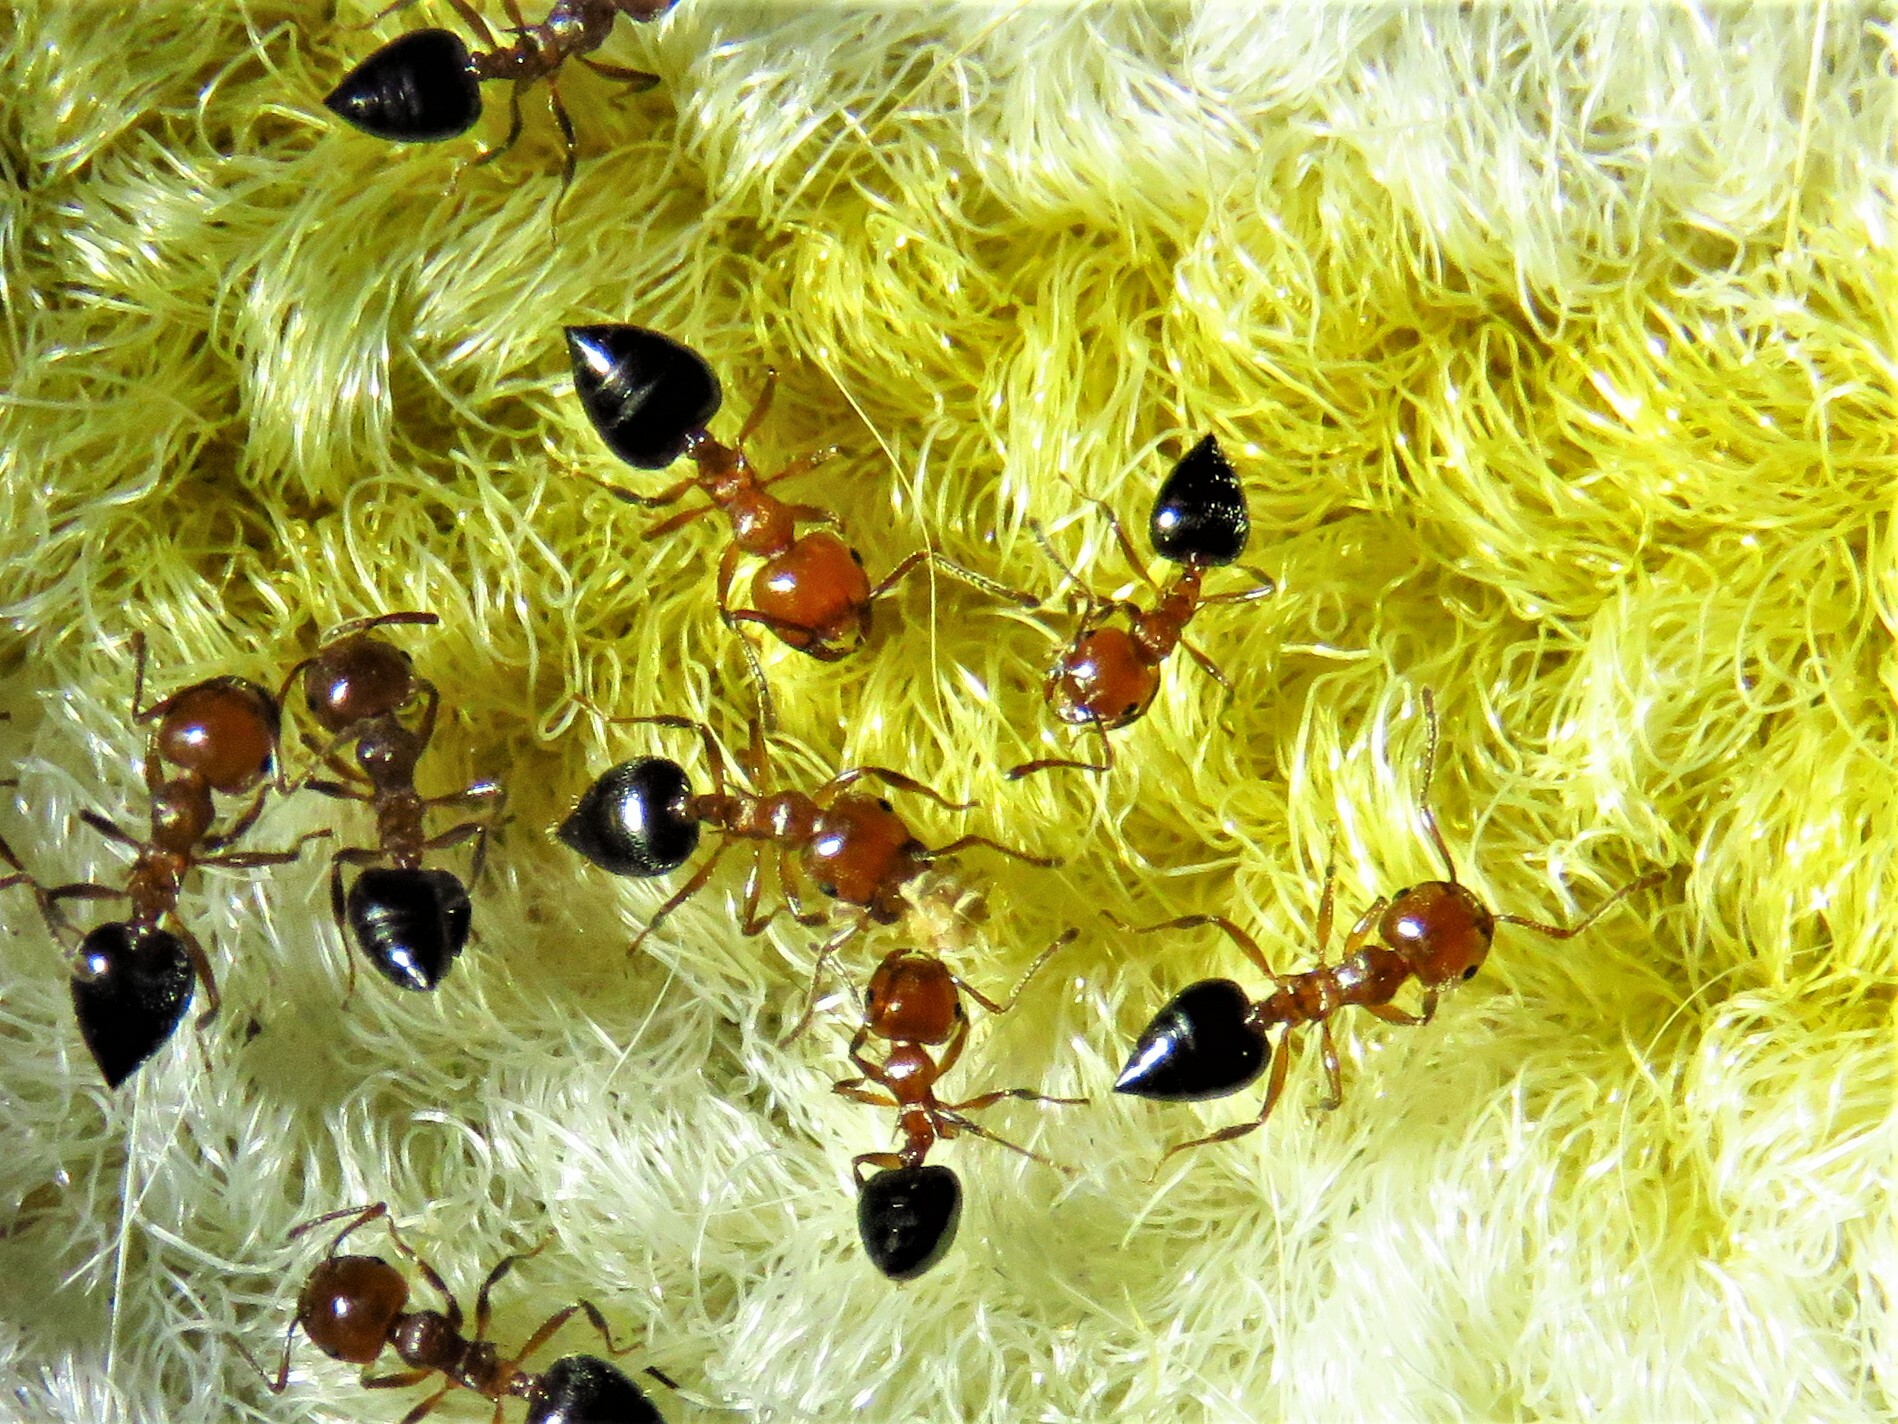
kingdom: Animalia
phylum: Arthropoda
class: Insecta
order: Hymenoptera
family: Formicidae
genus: Crematogaster
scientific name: Crematogaster laeviuscula
